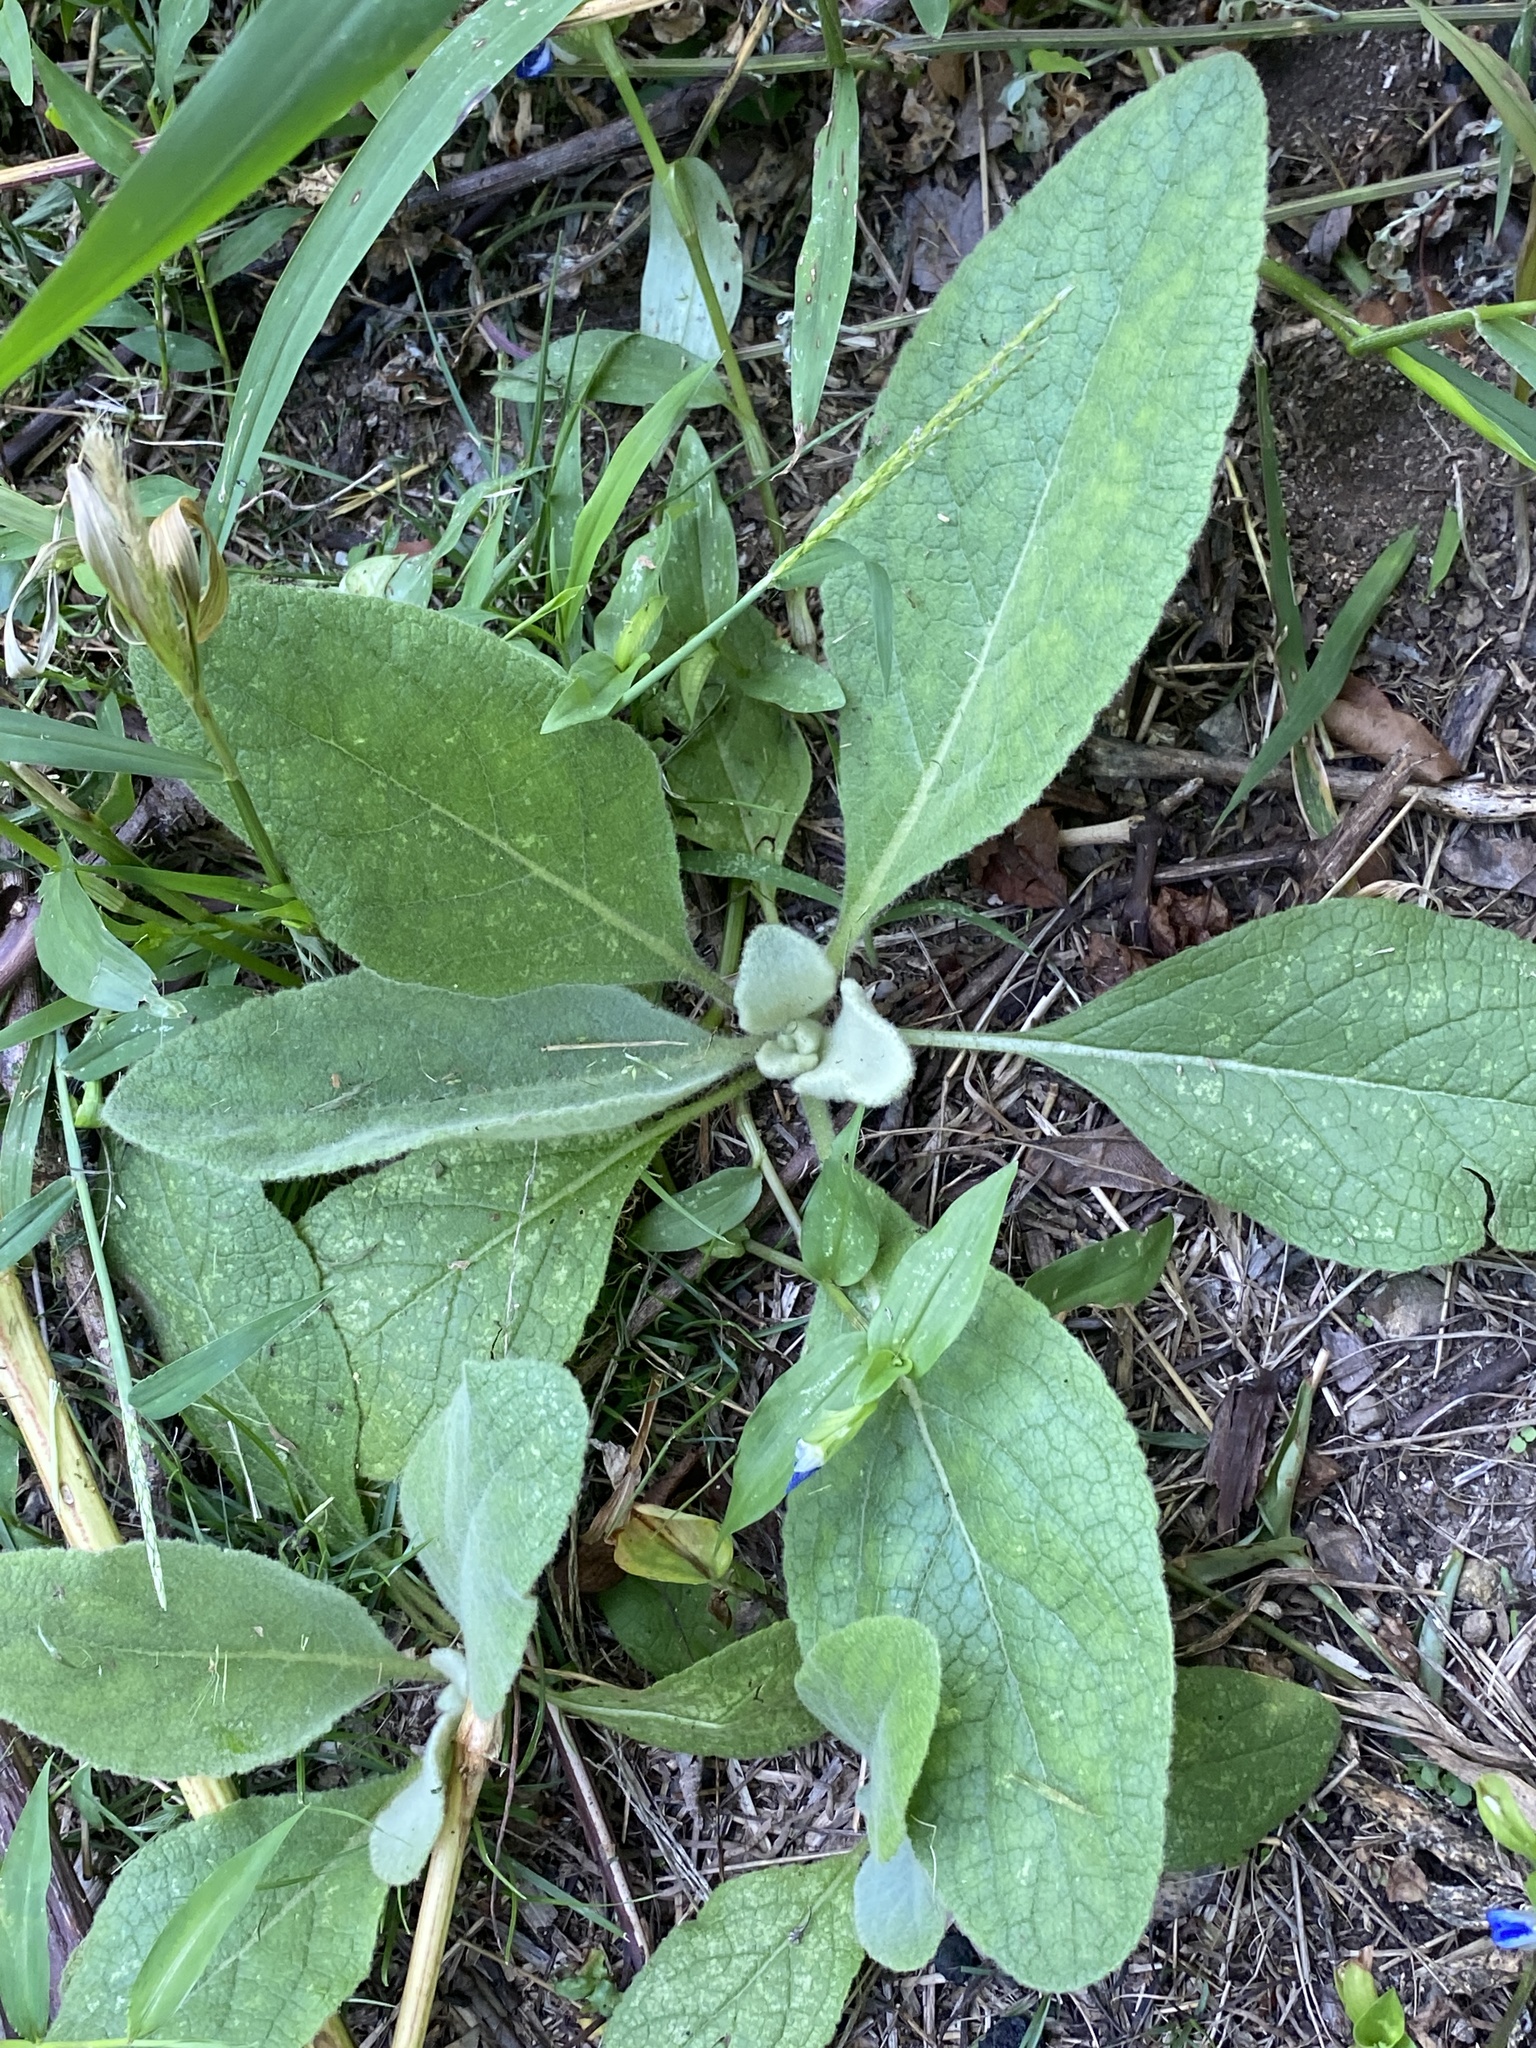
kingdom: Plantae
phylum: Tracheophyta
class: Magnoliopsida
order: Lamiales
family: Scrophulariaceae
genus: Verbascum
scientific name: Verbascum thapsus
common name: Common mullein
